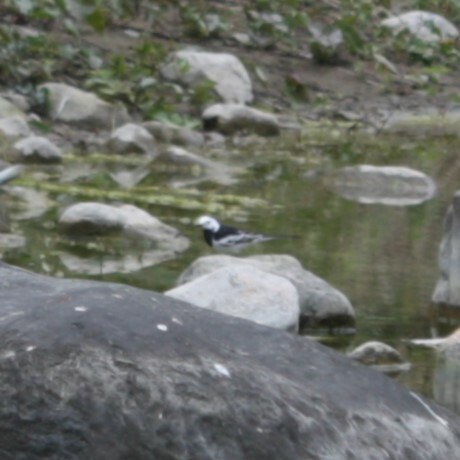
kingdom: Animalia
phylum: Chordata
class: Aves
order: Passeriformes
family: Motacillidae
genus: Motacilla
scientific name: Motacilla alba
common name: White wagtail
